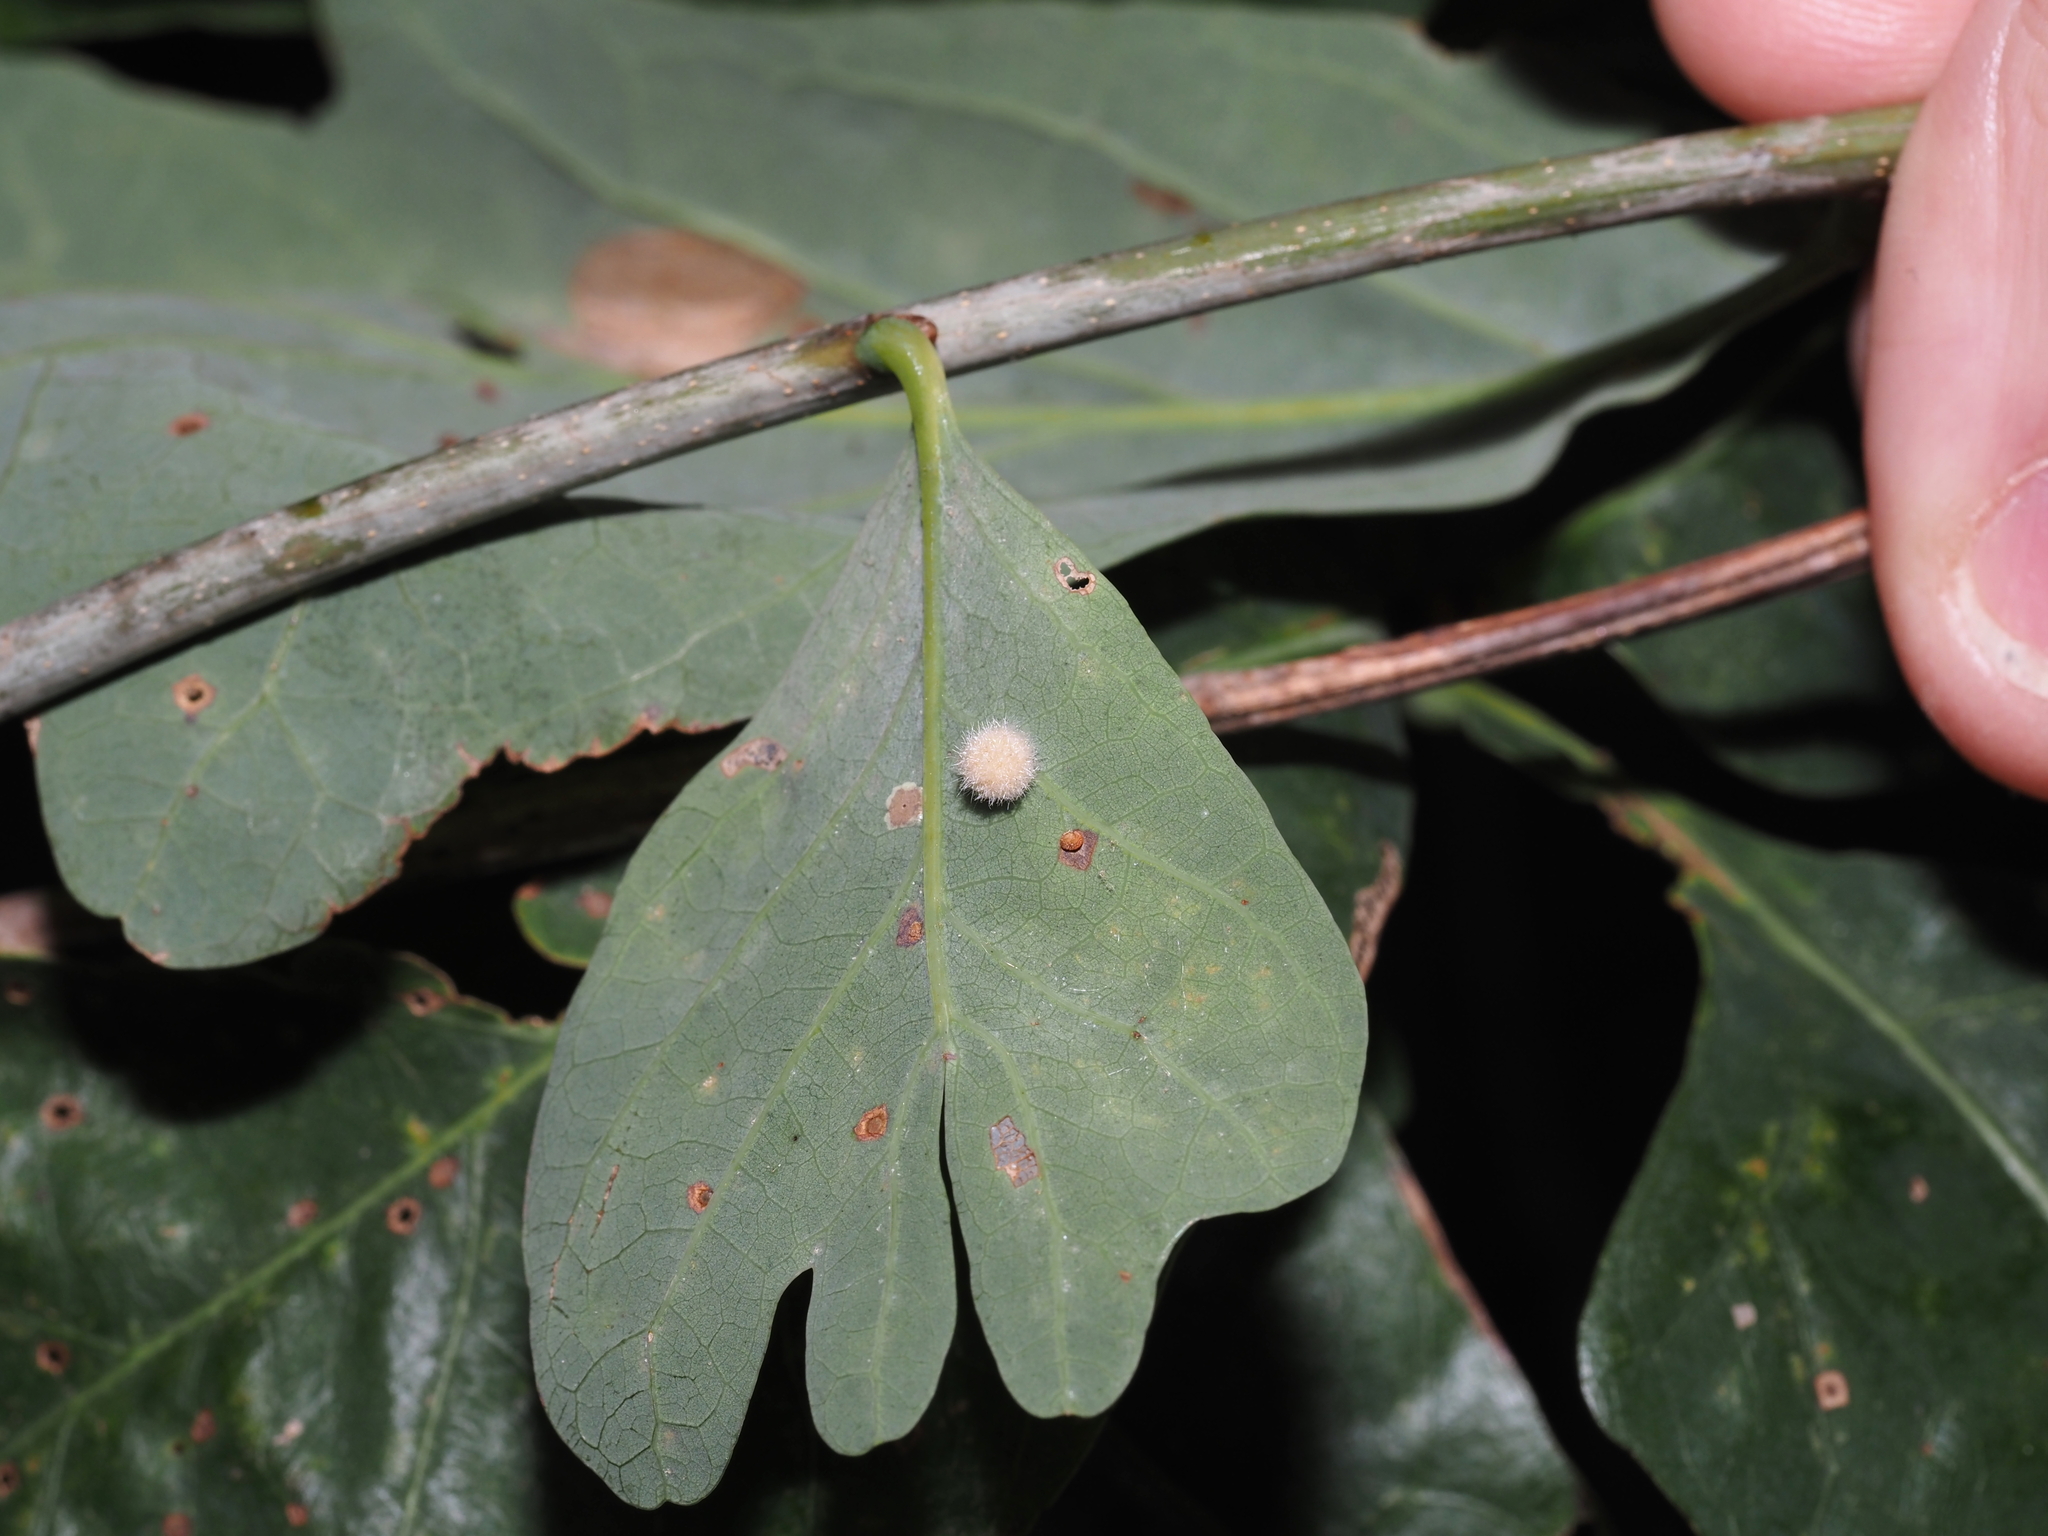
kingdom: Animalia
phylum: Arthropoda
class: Insecta
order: Hymenoptera
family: Cynipidae
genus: Philonix
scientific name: Philonix fulvicollis
